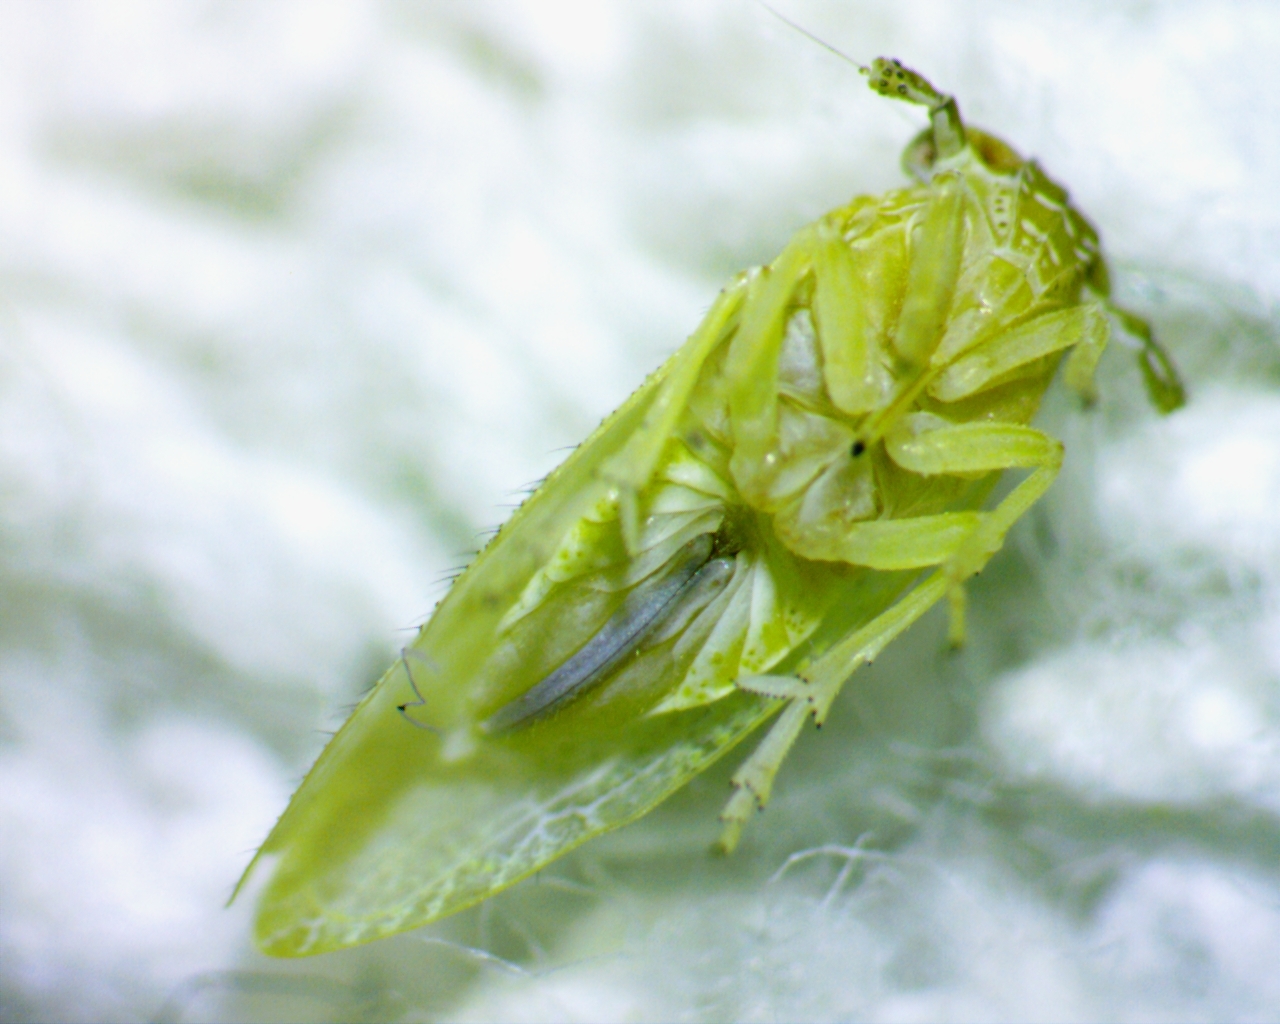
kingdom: Animalia
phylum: Arthropoda
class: Insecta
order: Hemiptera
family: Delphacidae
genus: Stobaera
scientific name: Stobaera pallida
